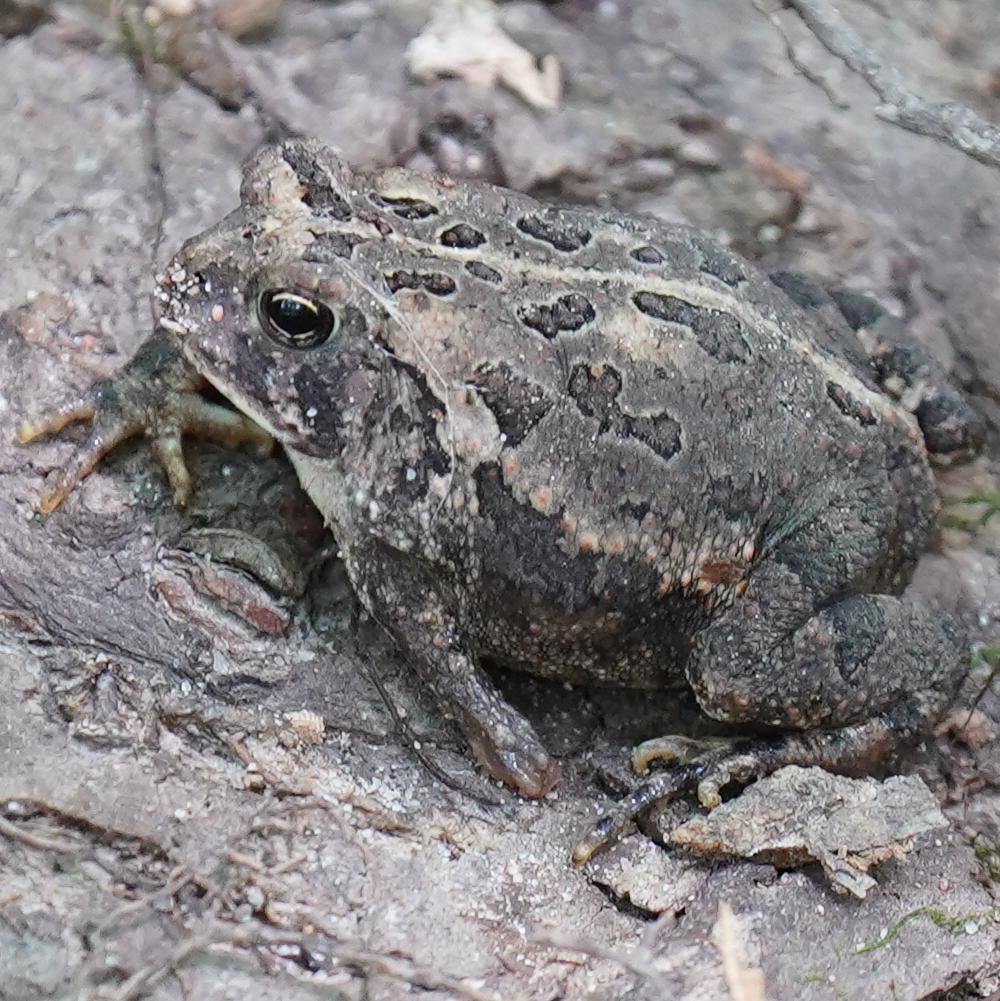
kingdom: Animalia
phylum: Chordata
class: Amphibia
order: Anura
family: Bufonidae
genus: Anaxyrus
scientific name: Anaxyrus fowleri
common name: Fowler's toad
